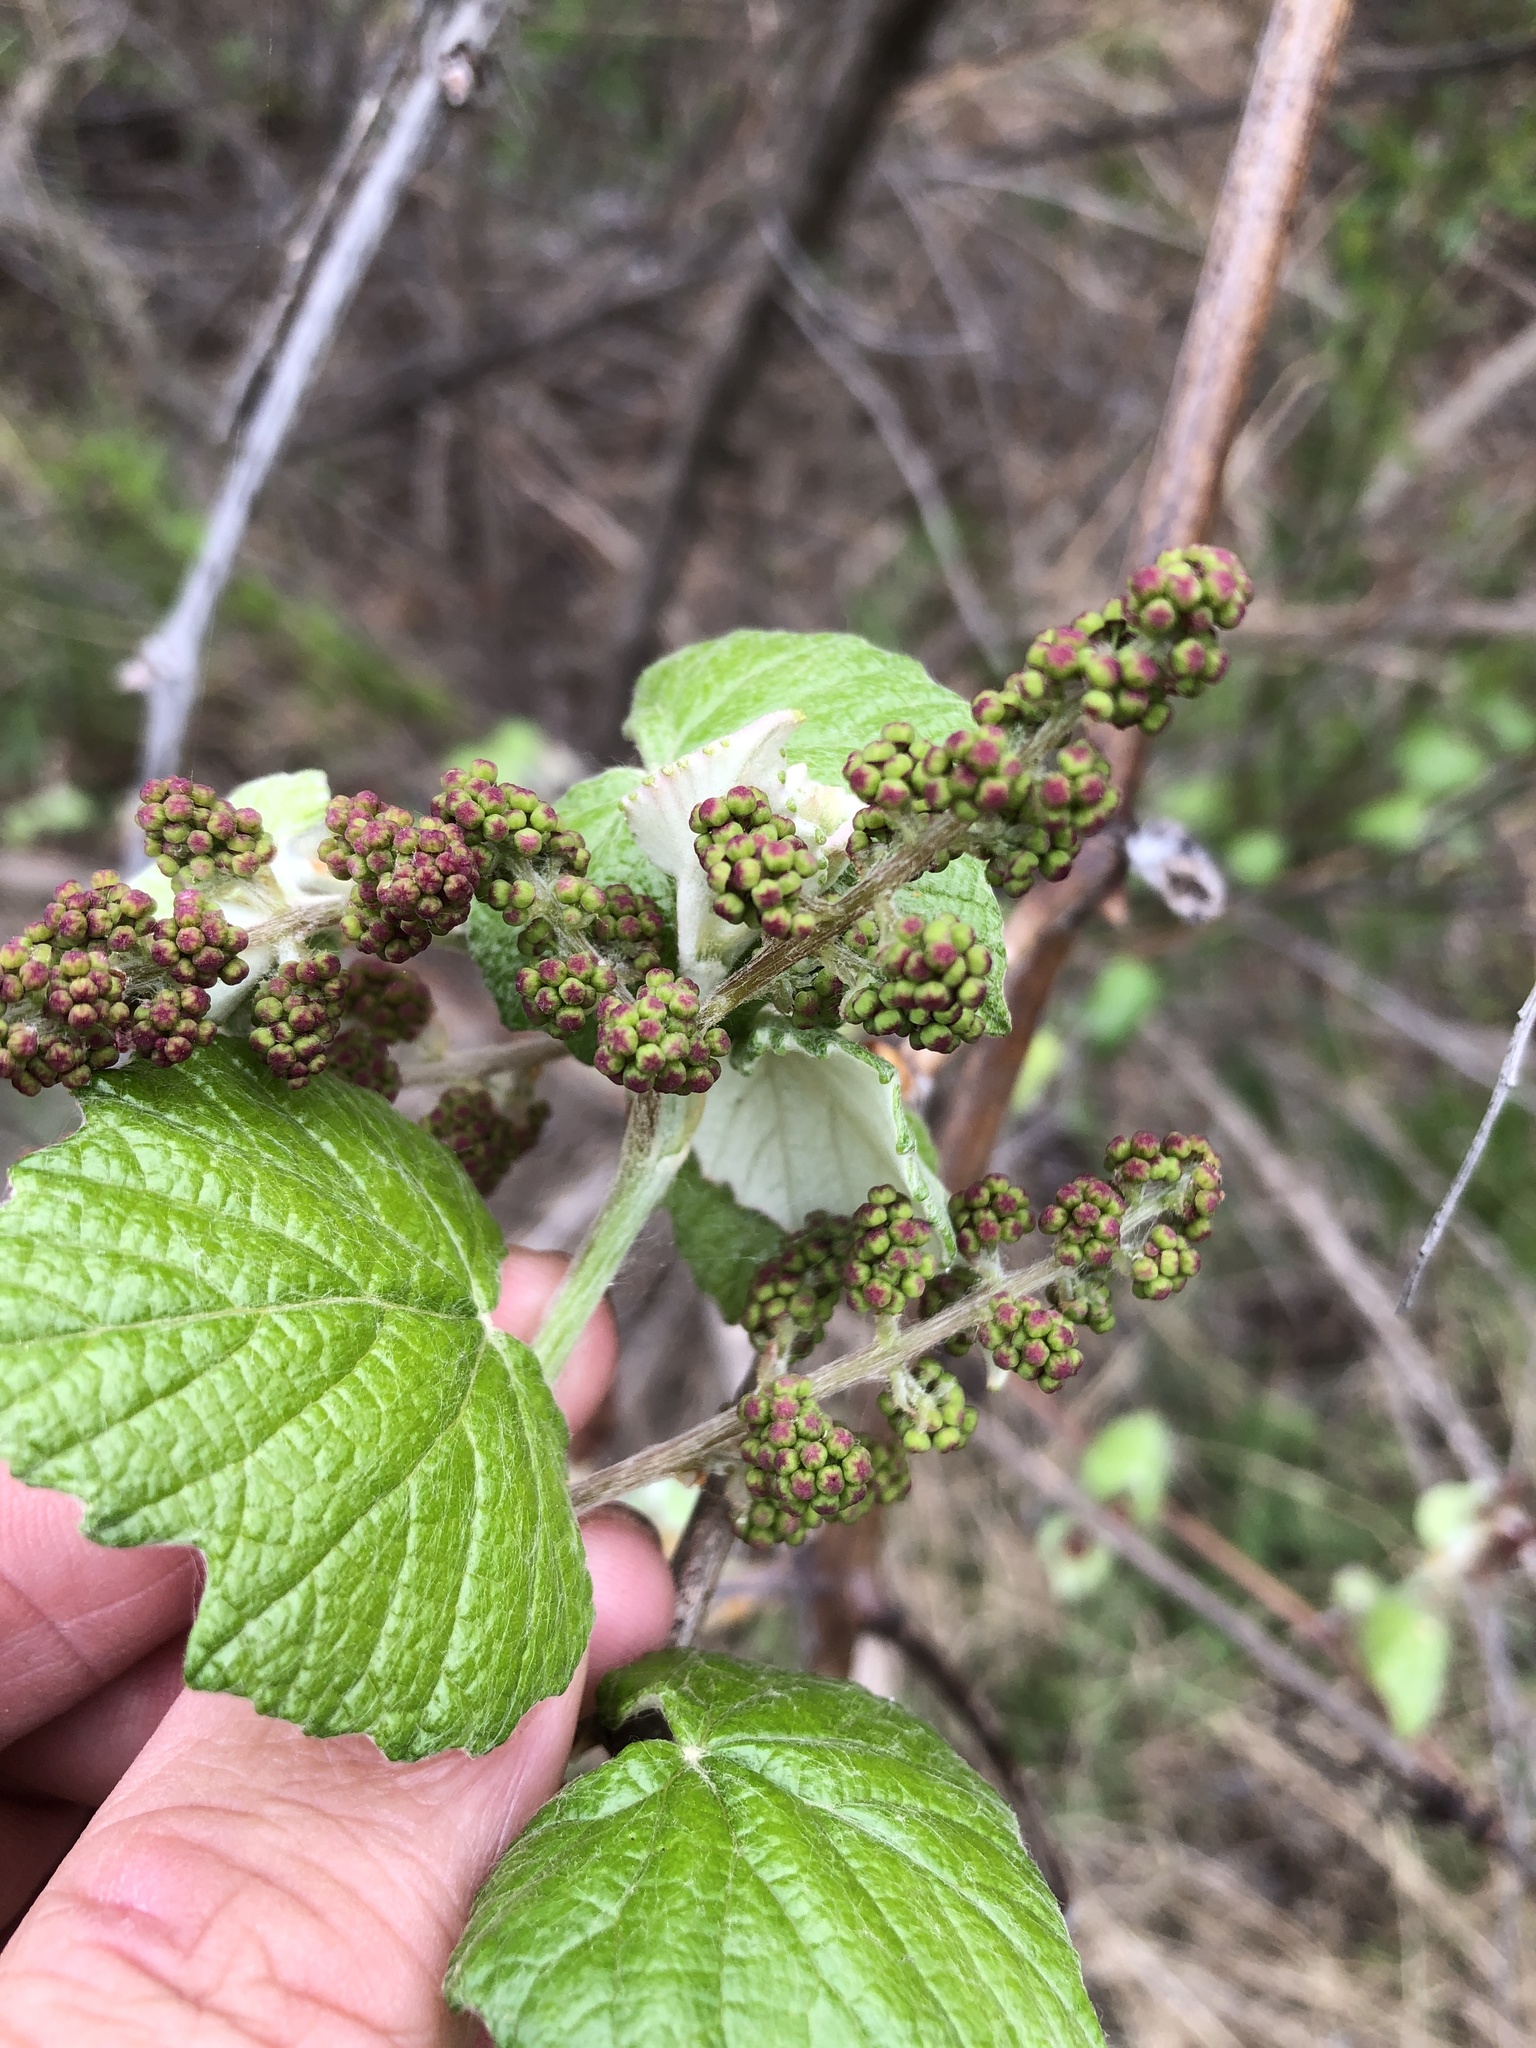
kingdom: Plantae
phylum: Tracheophyta
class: Magnoliopsida
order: Vitales
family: Vitaceae
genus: Vitis
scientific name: Vitis mustangensis
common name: Mustang grape
